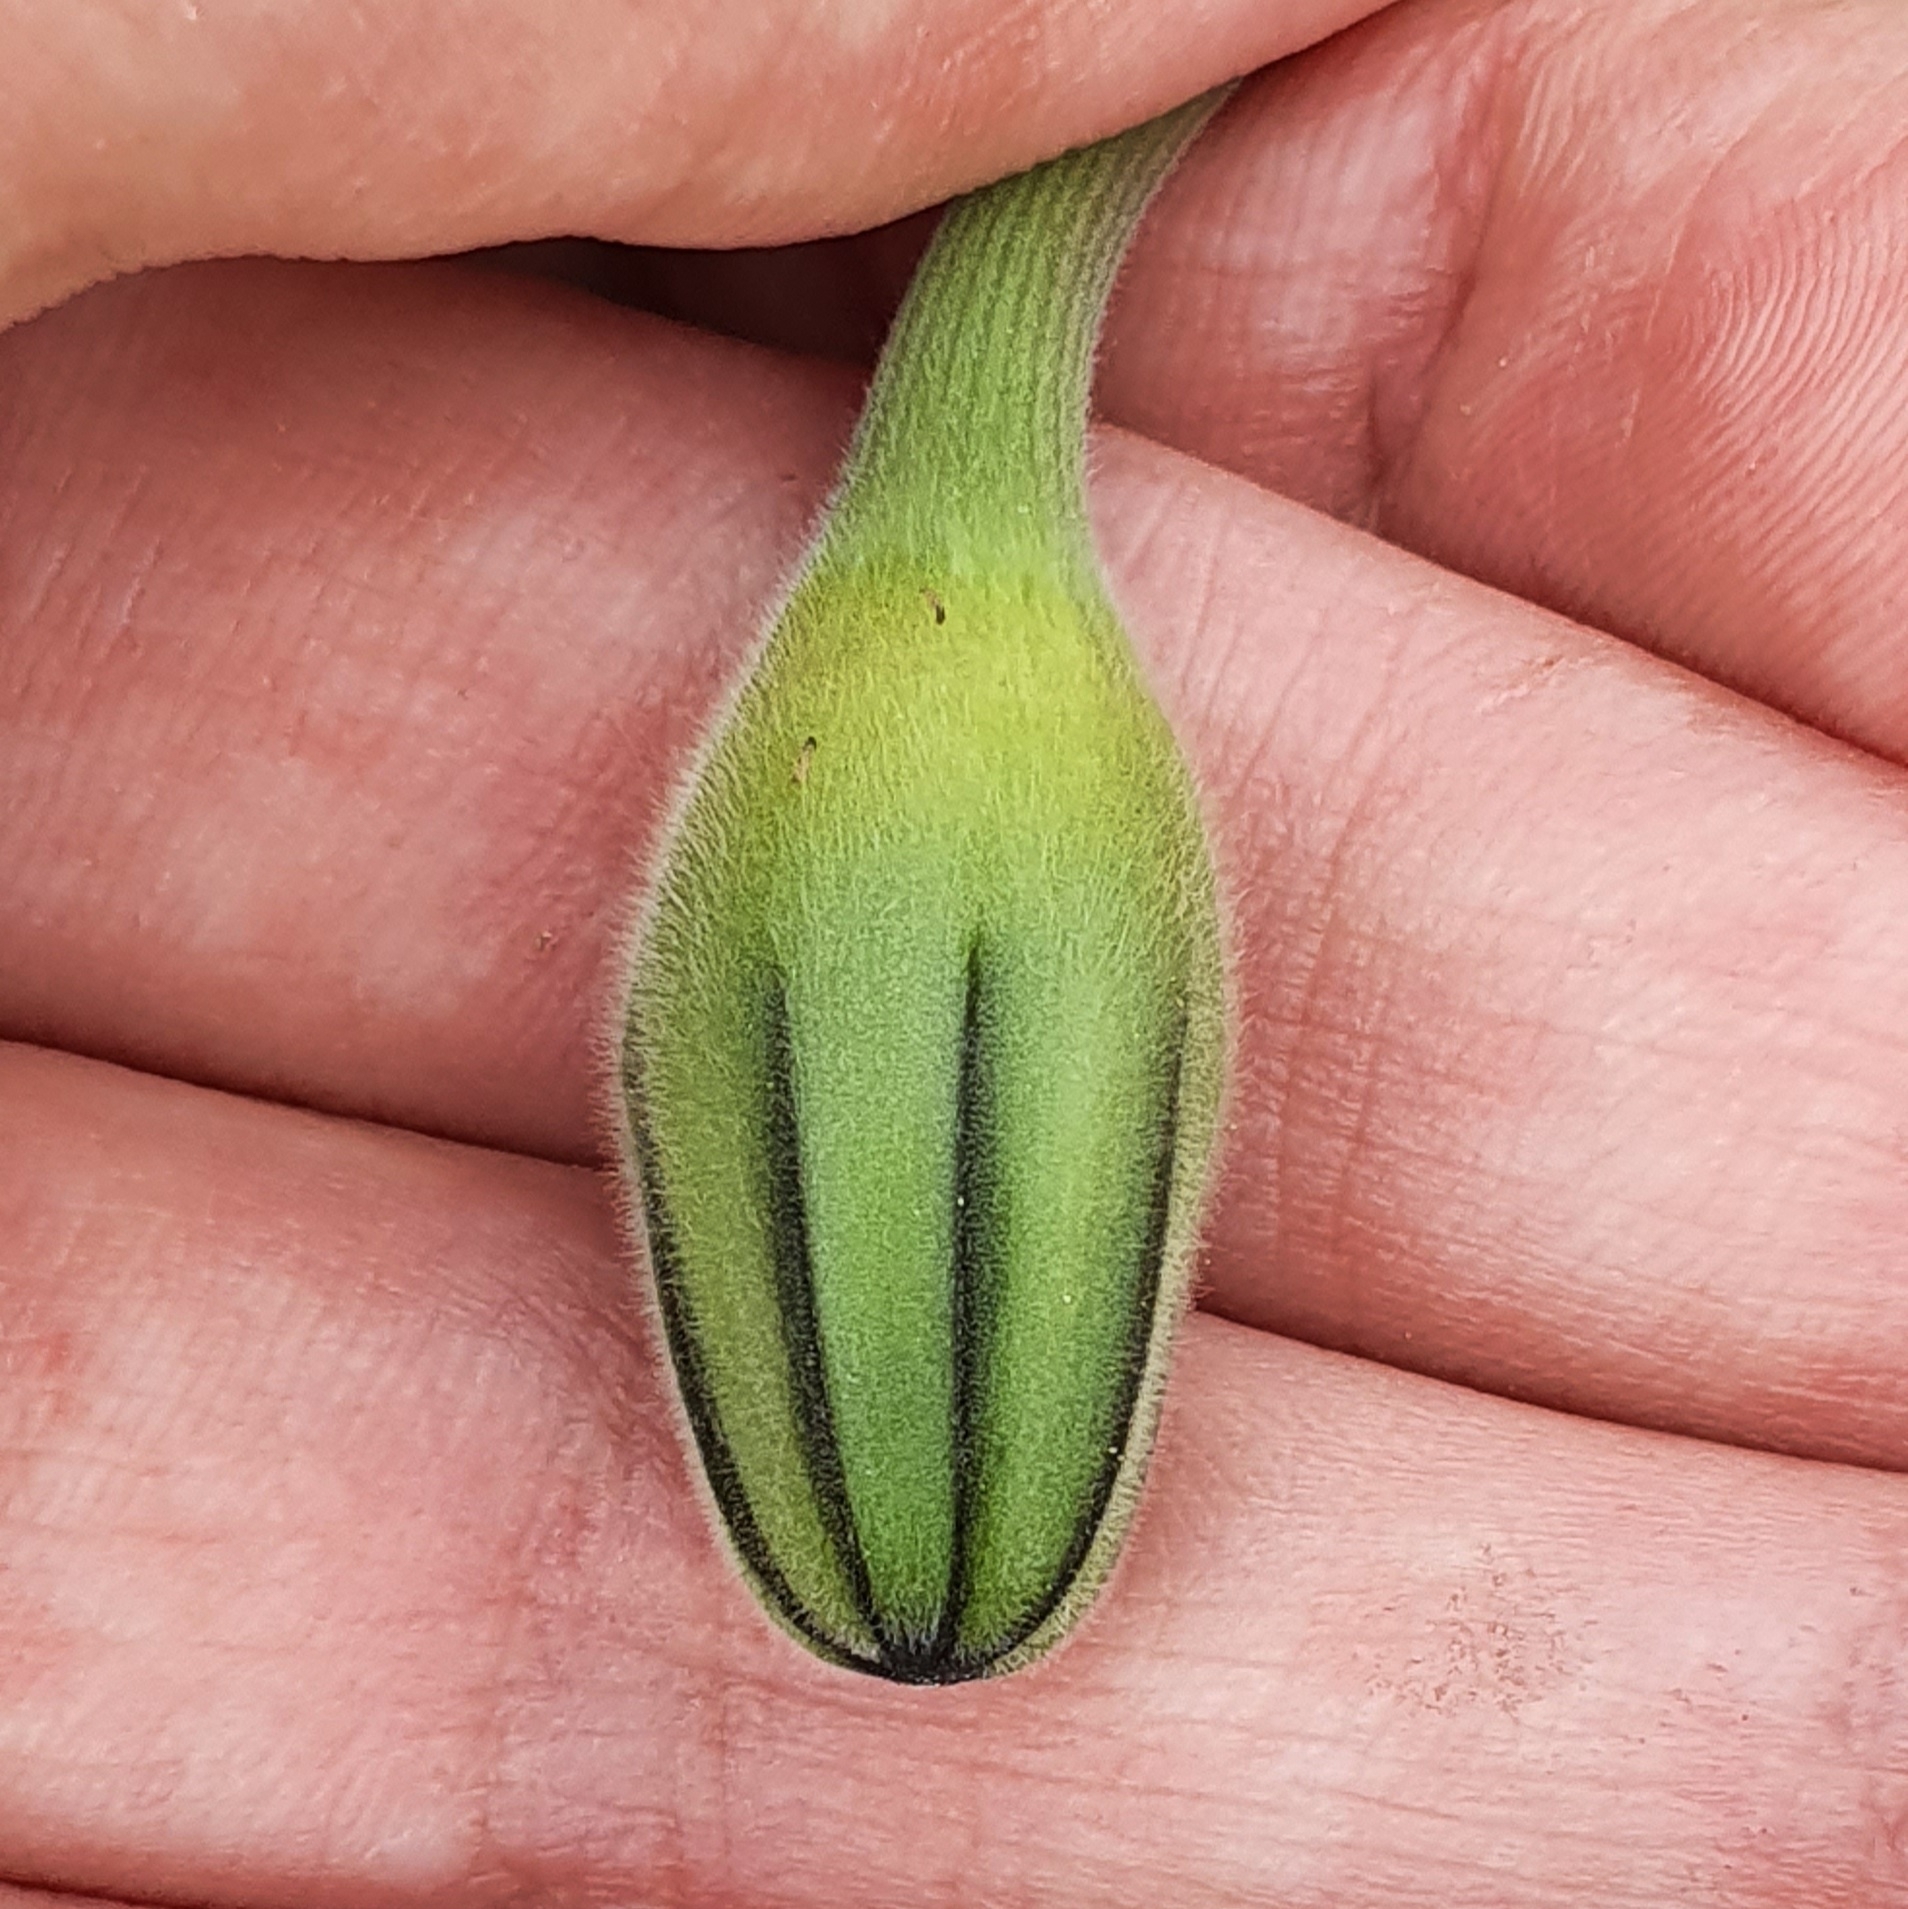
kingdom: Plantae
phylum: Tracheophyta
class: Magnoliopsida
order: Asterales
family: Asteraceae
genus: Urospermum
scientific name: Urospermum dalechampii
